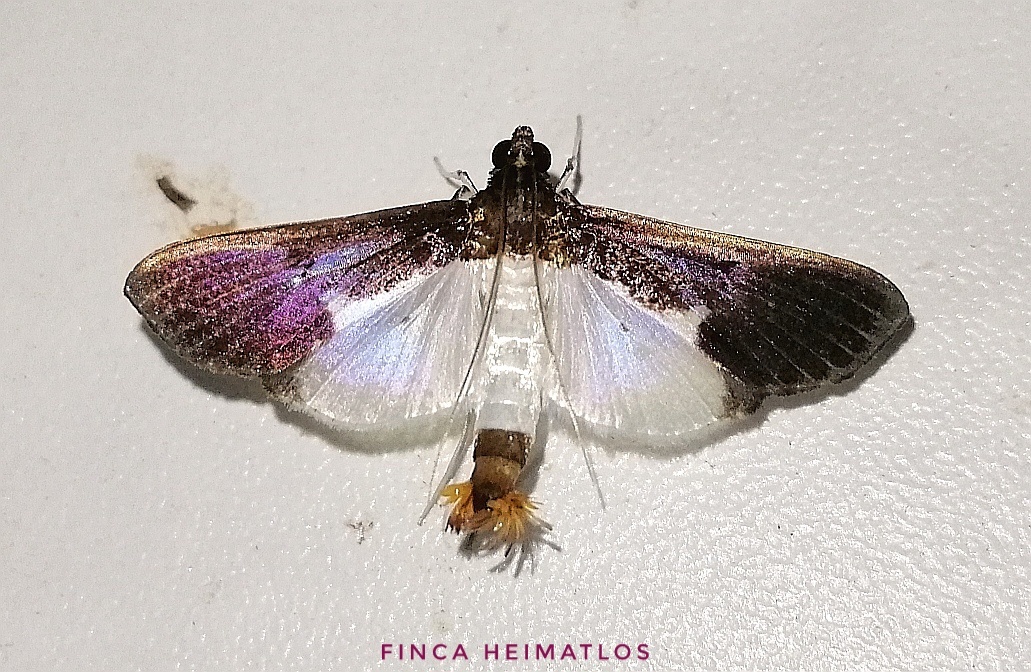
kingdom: Animalia
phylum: Arthropoda
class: Insecta
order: Lepidoptera
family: Crambidae
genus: Diaphania
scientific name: Diaphania yurakyana
